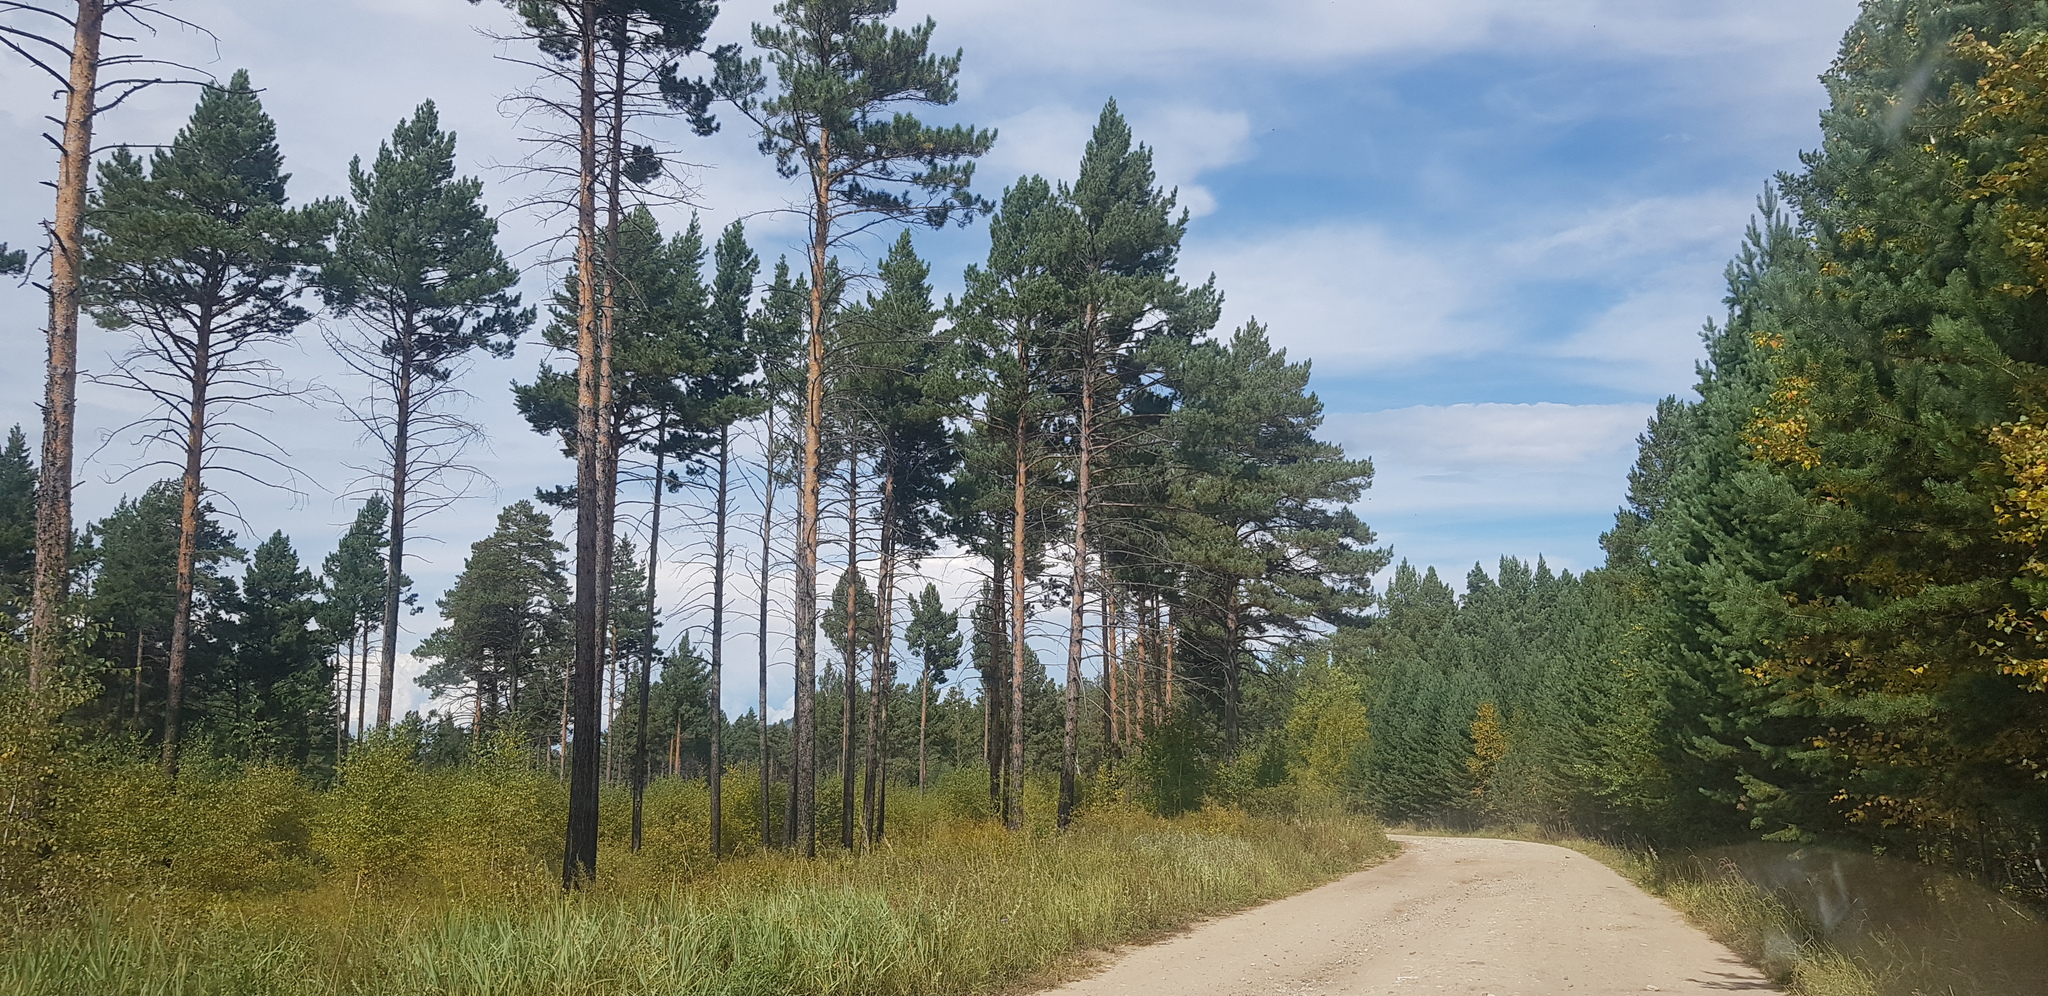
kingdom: Plantae
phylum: Tracheophyta
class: Pinopsida
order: Pinales
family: Pinaceae
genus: Pinus
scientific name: Pinus sylvestris
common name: Scots pine
